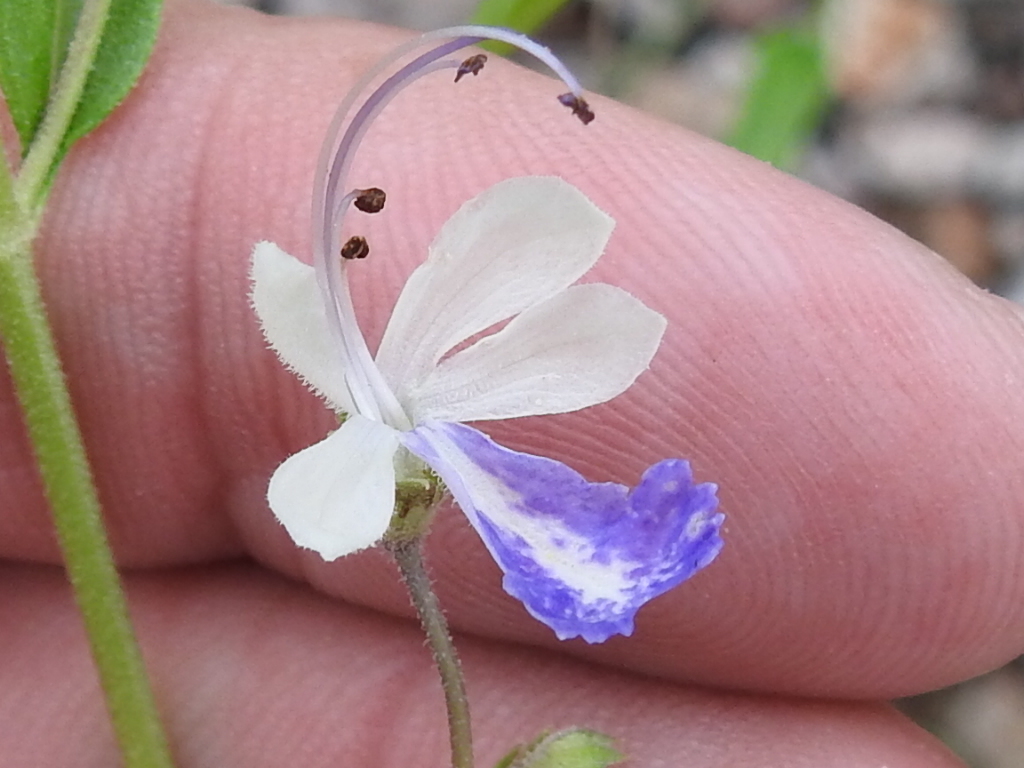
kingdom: Plantae
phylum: Tracheophyta
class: Magnoliopsida
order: Lamiales
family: Lamiaceae
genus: Trichostema
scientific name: Trichostema arizonicum
